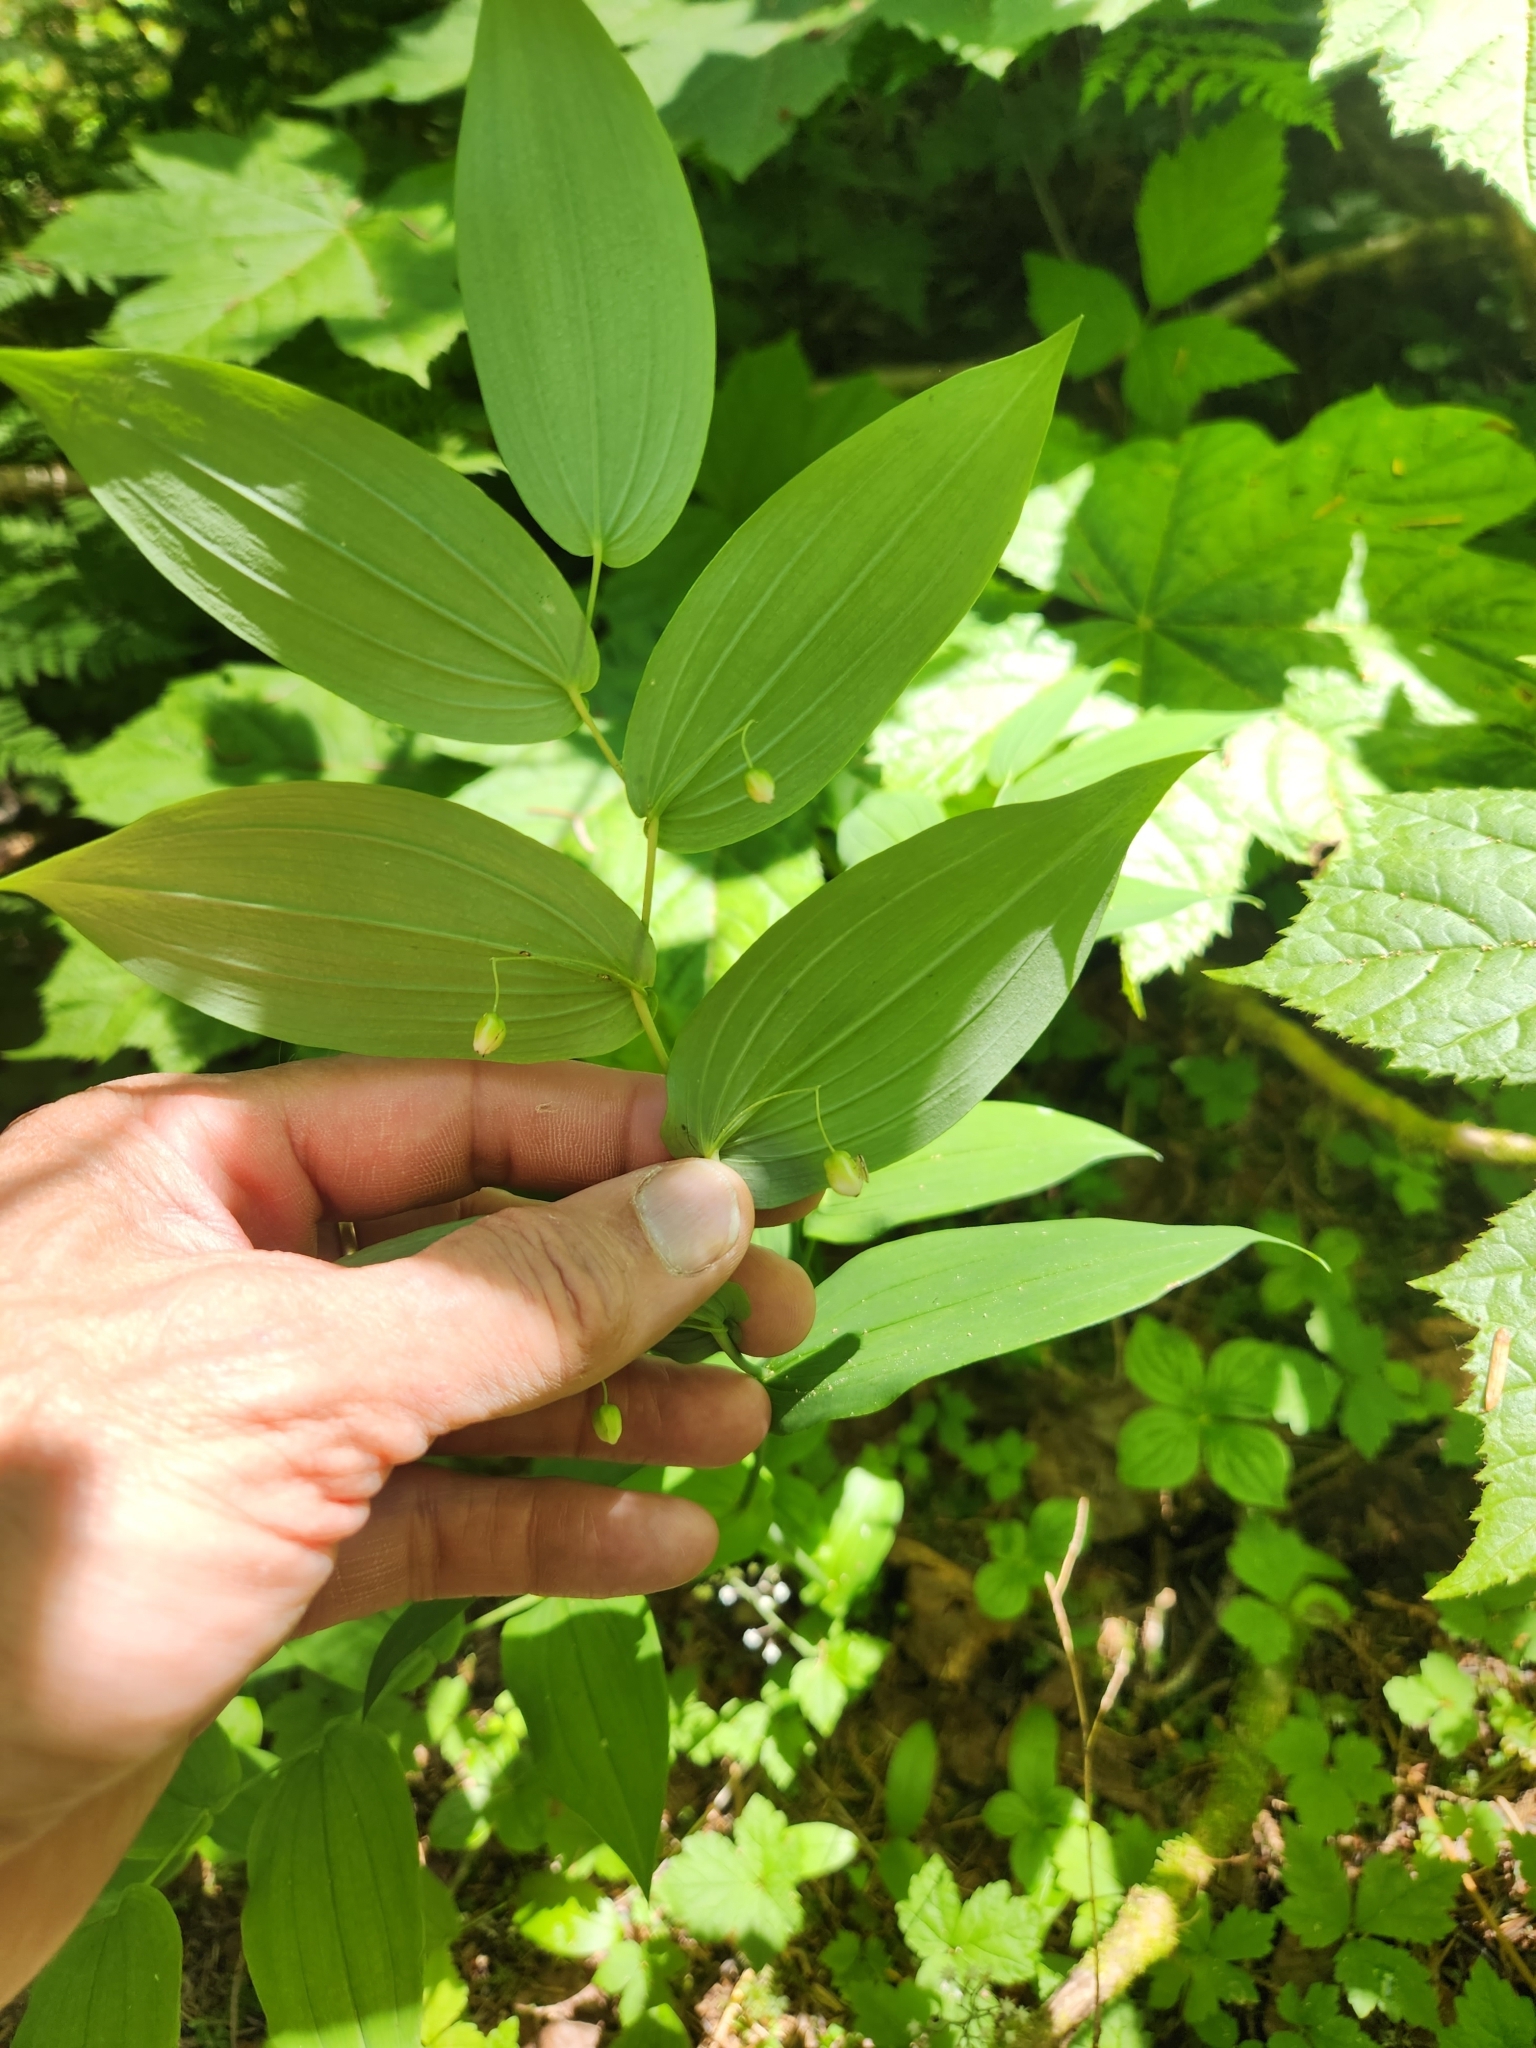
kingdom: Plantae
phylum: Tracheophyta
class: Liliopsida
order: Liliales
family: Liliaceae
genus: Streptopus
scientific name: Streptopus amplexifolius
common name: Clasp twisted stalk
